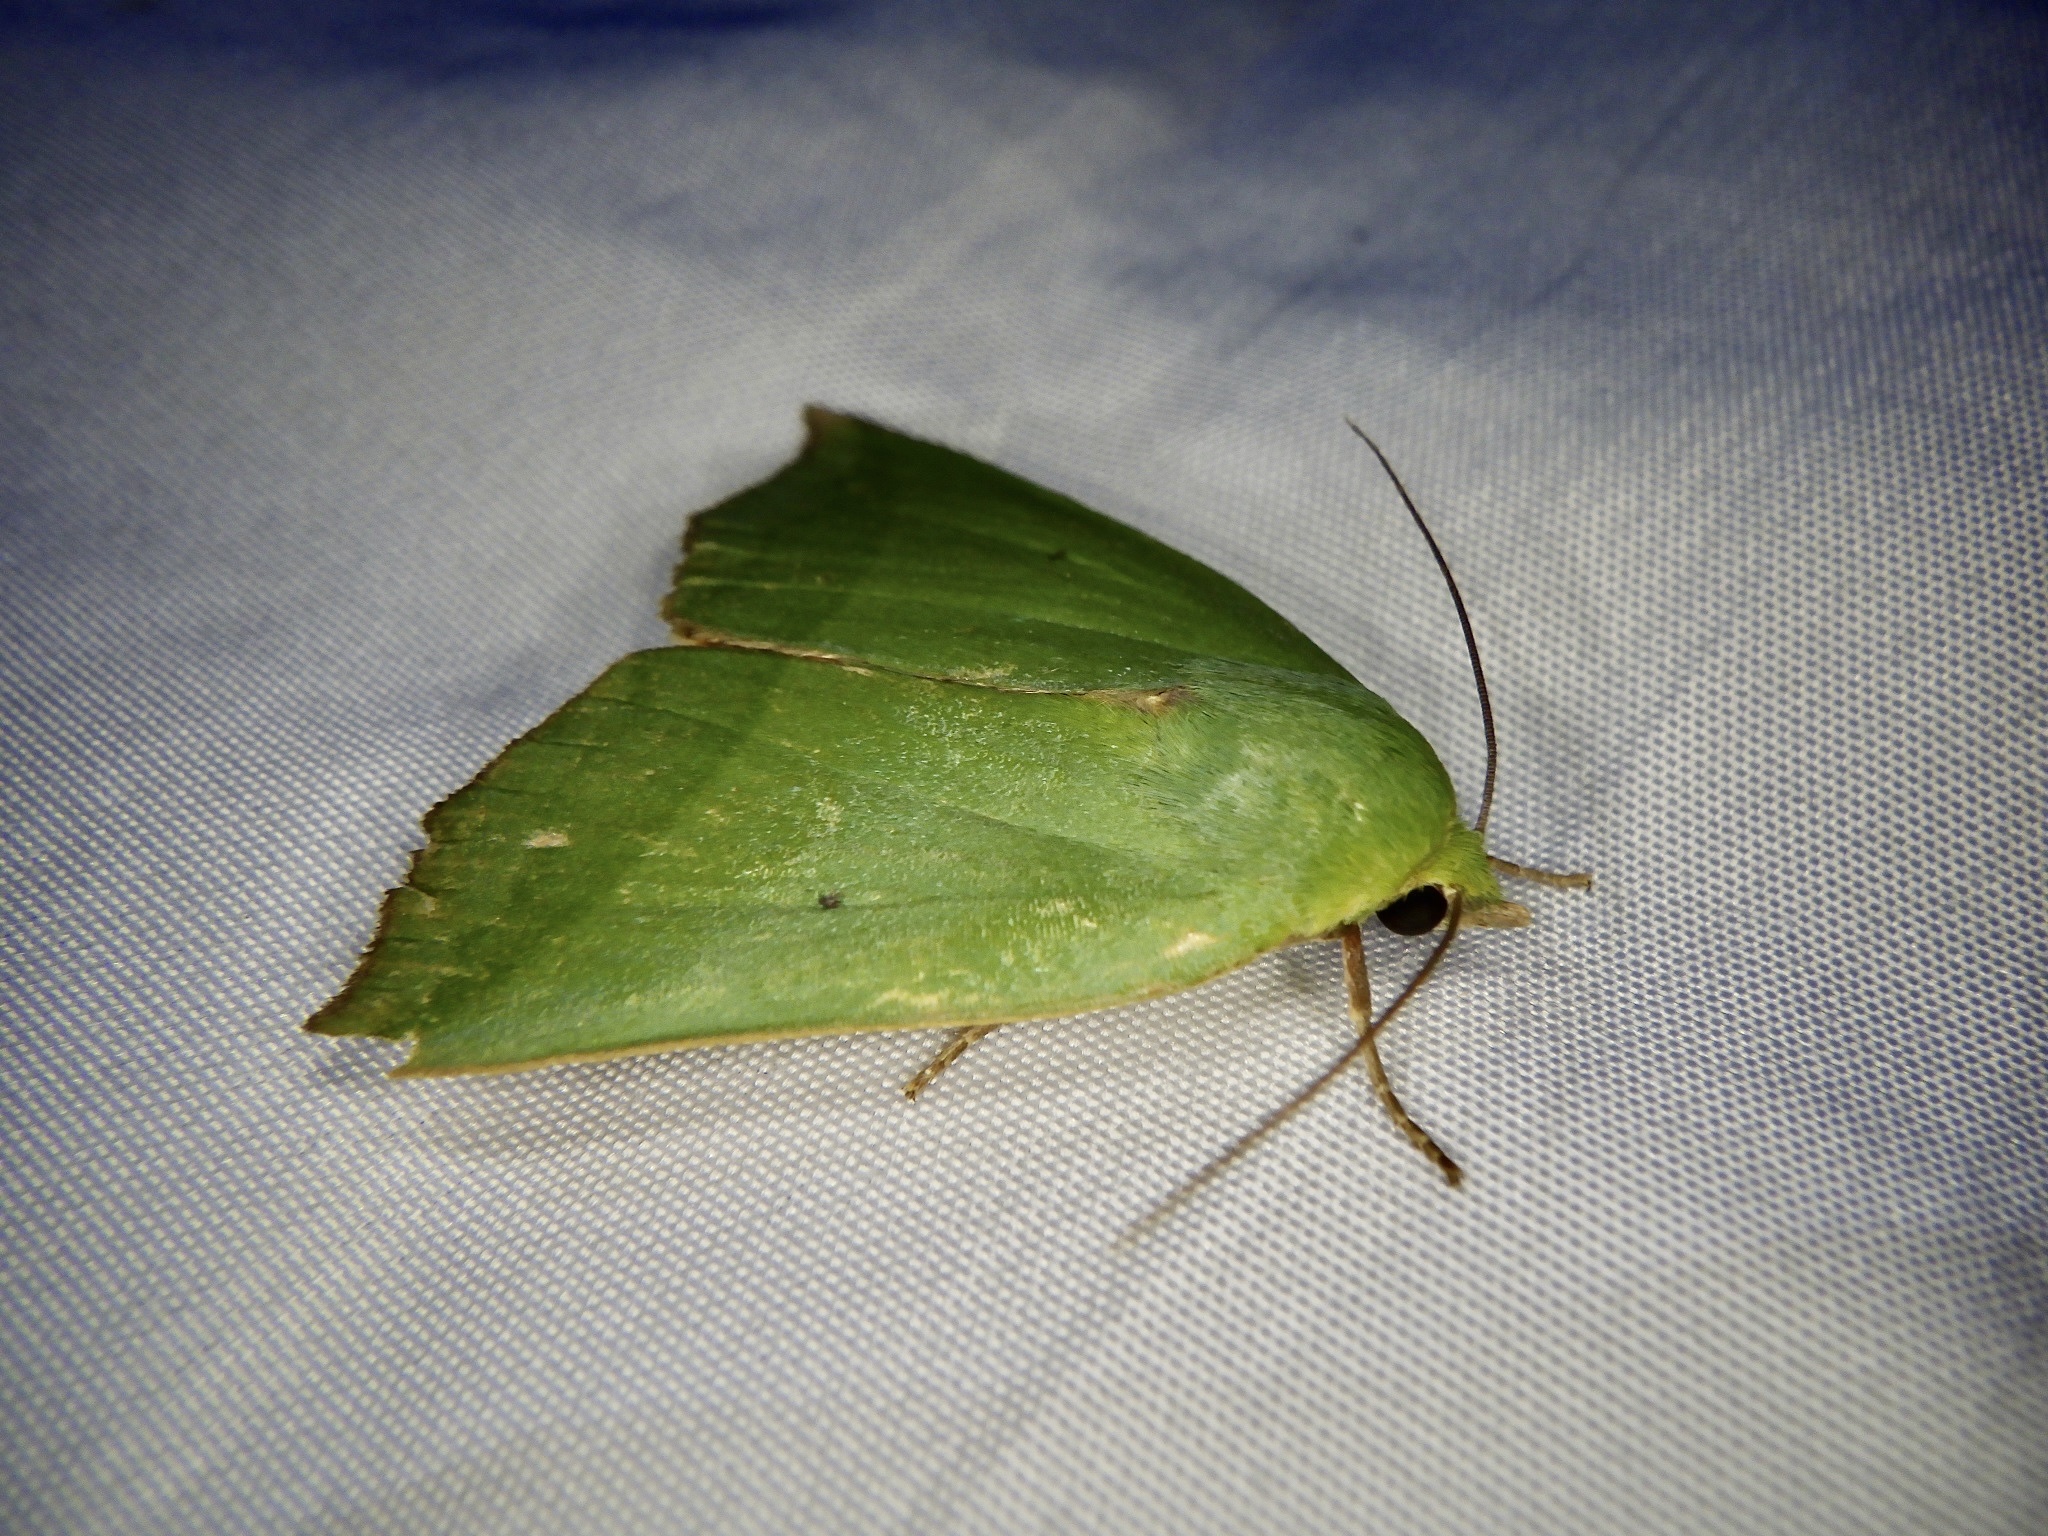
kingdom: Animalia
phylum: Arthropoda
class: Insecta
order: Lepidoptera
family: Nolidae
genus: Clethrophora
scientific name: Clethrophora distincta
